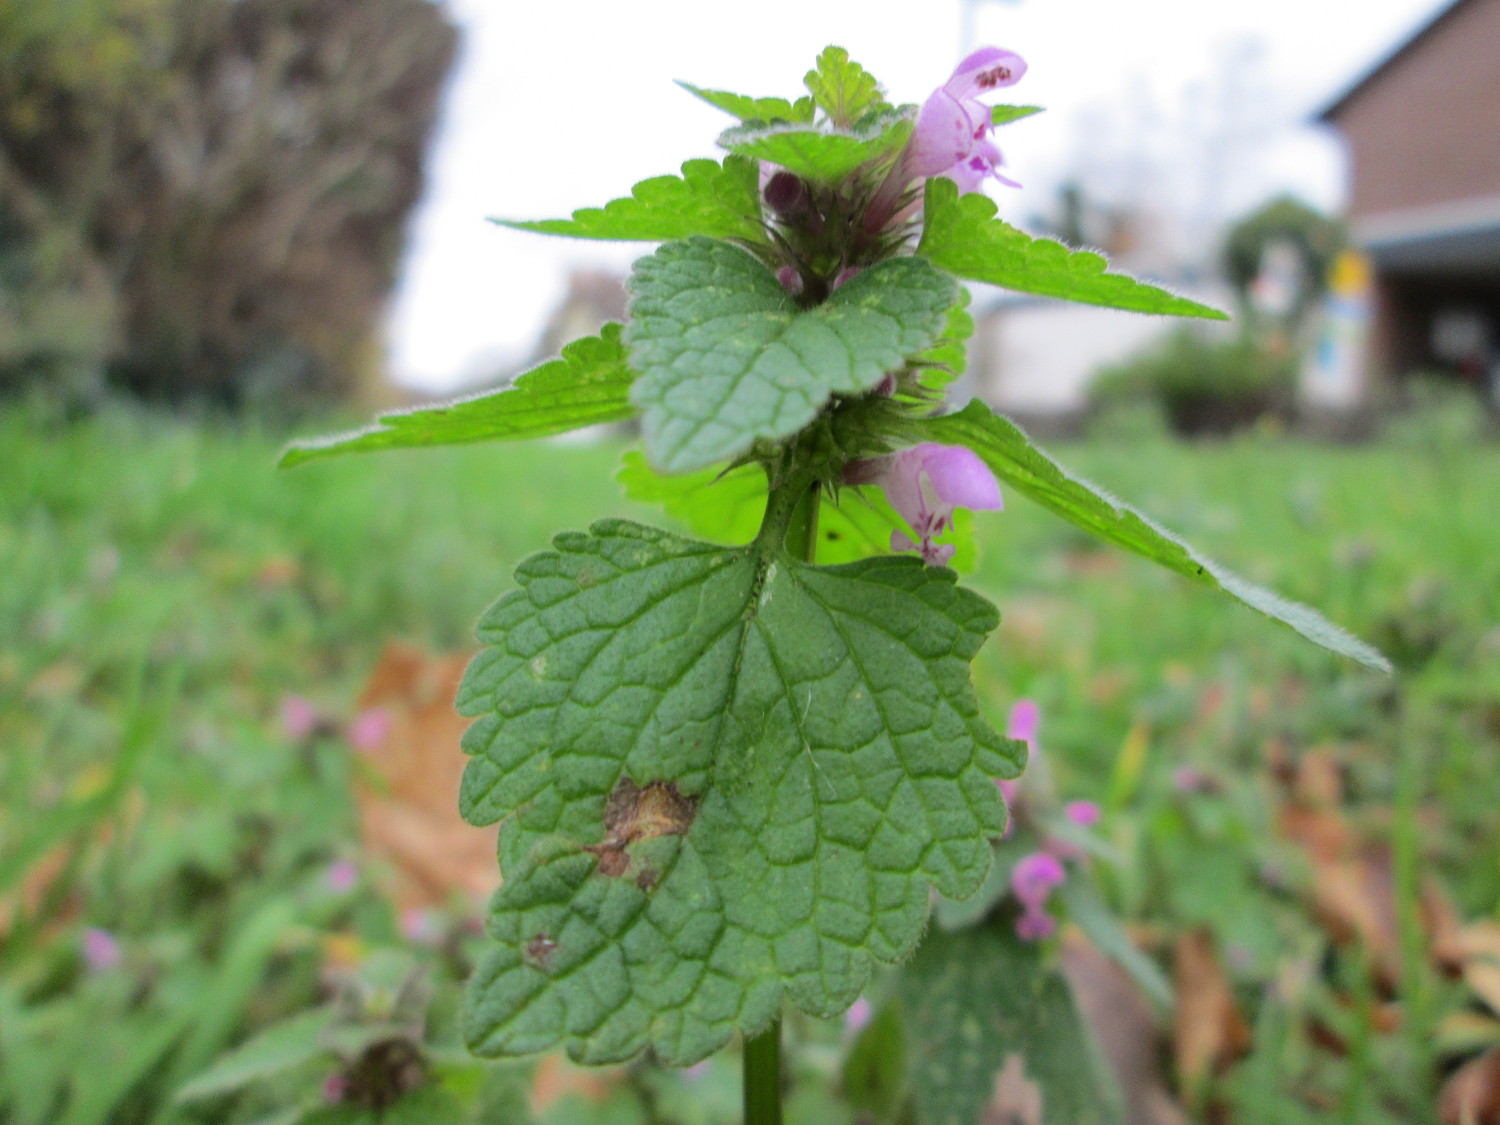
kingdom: Plantae
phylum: Tracheophyta
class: Magnoliopsida
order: Lamiales
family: Lamiaceae
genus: Lamium
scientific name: Lamium purpureum
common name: Red dead-nettle
